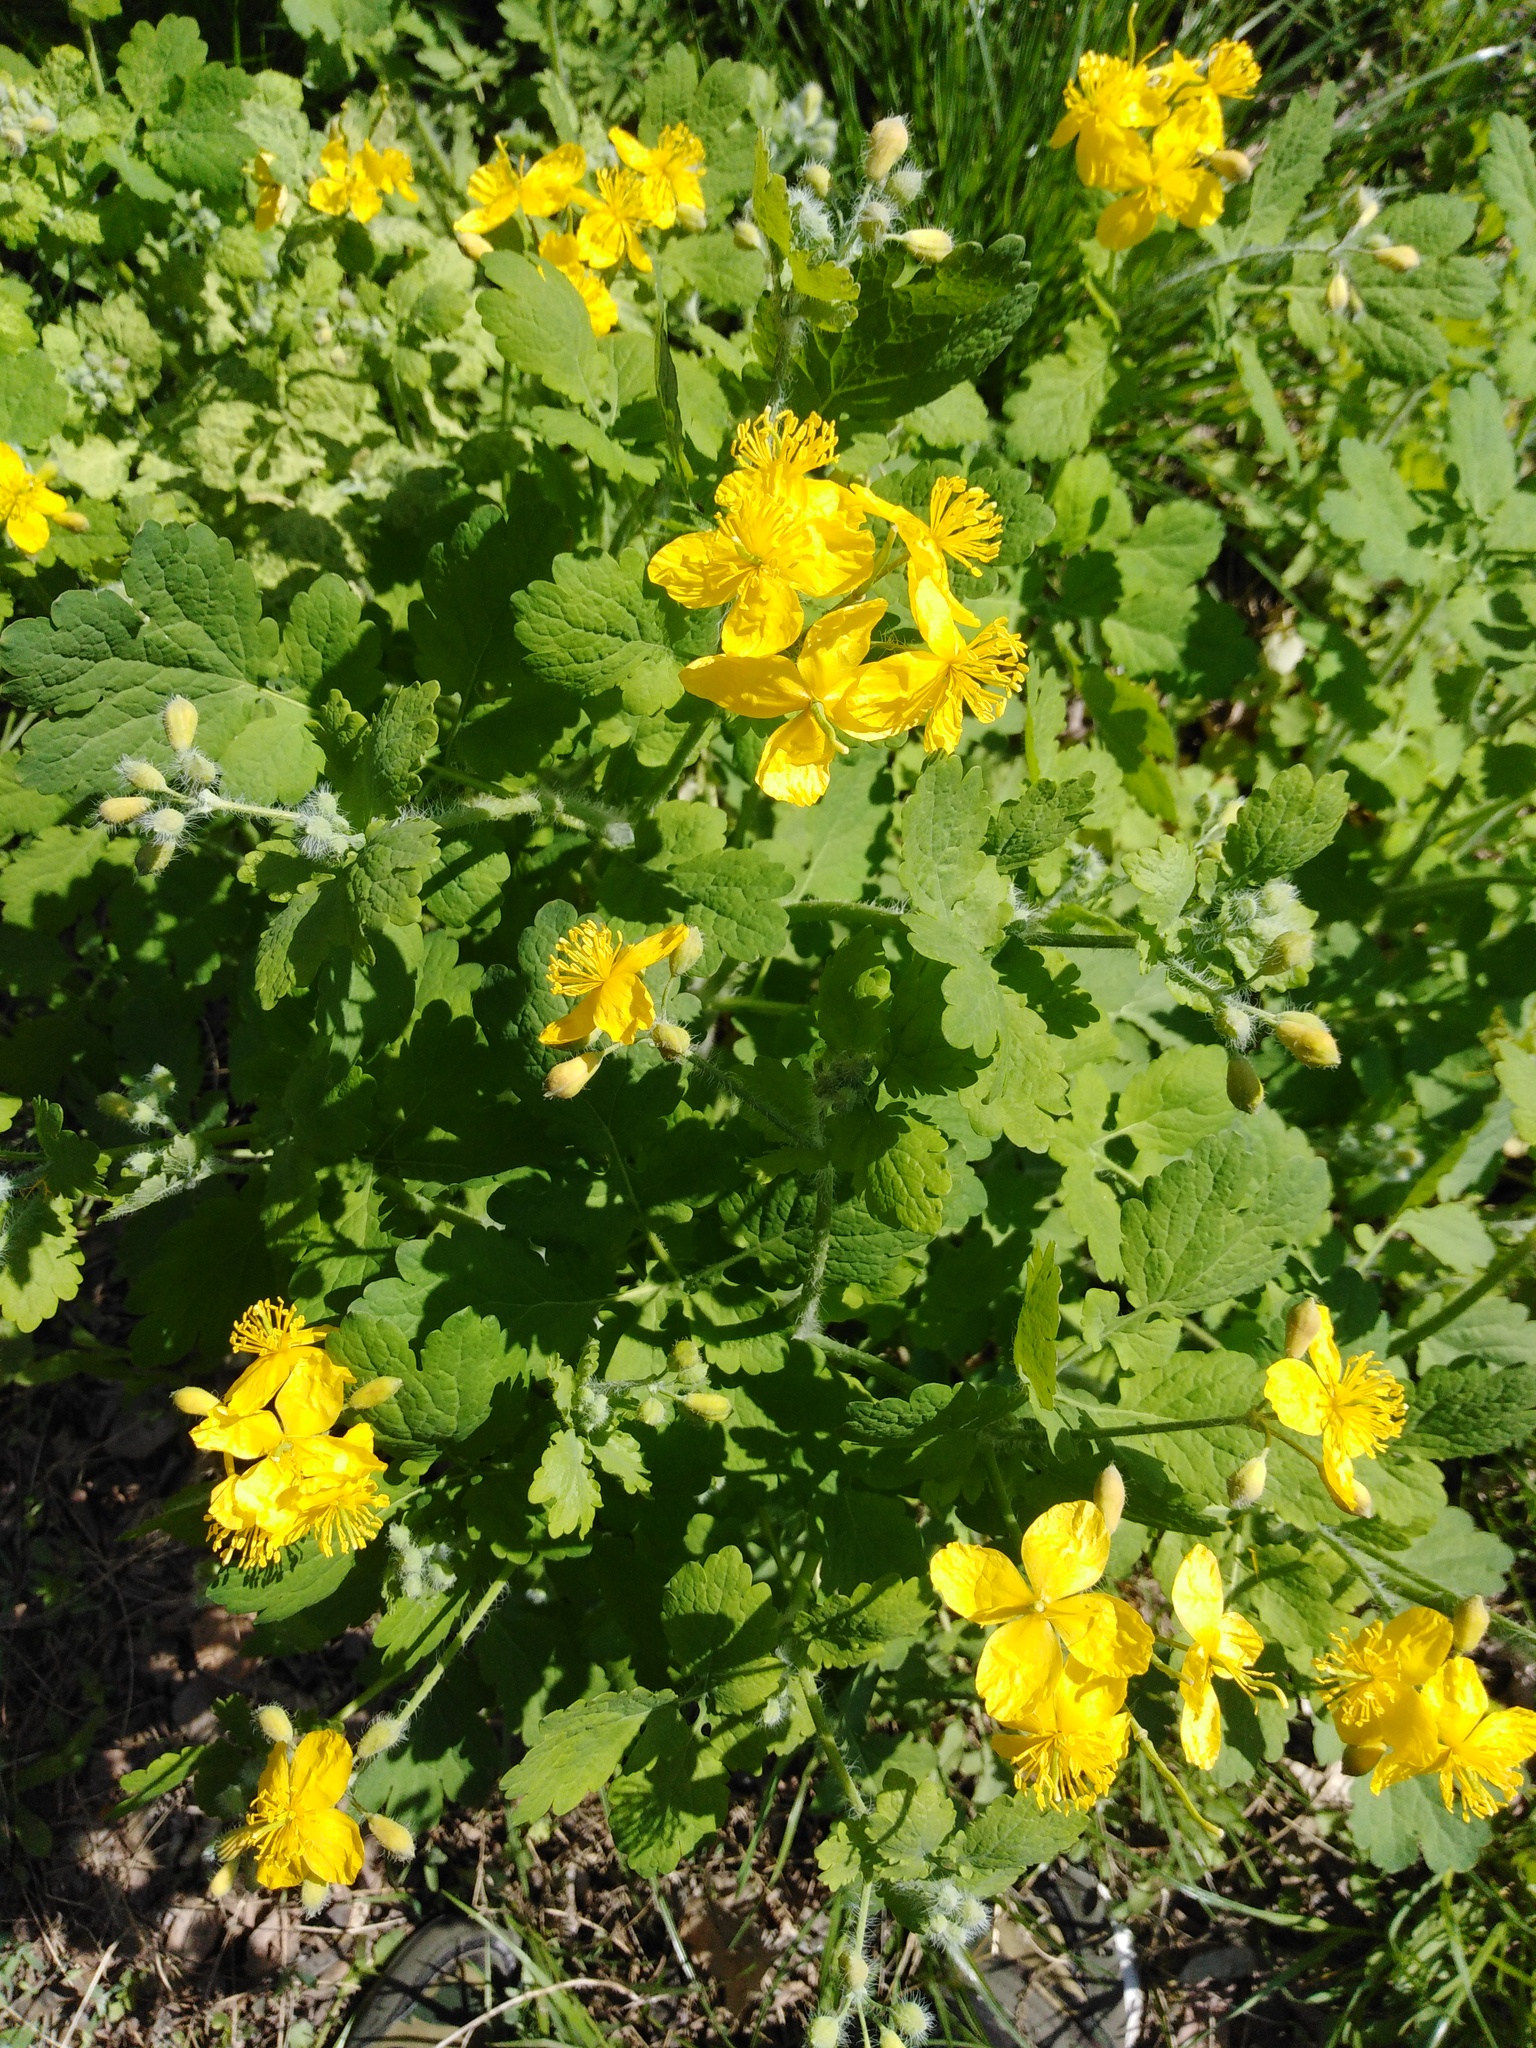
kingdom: Plantae
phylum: Tracheophyta
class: Magnoliopsida
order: Ranunculales
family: Papaveraceae
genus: Chelidonium
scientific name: Chelidonium majus
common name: Greater celandine
